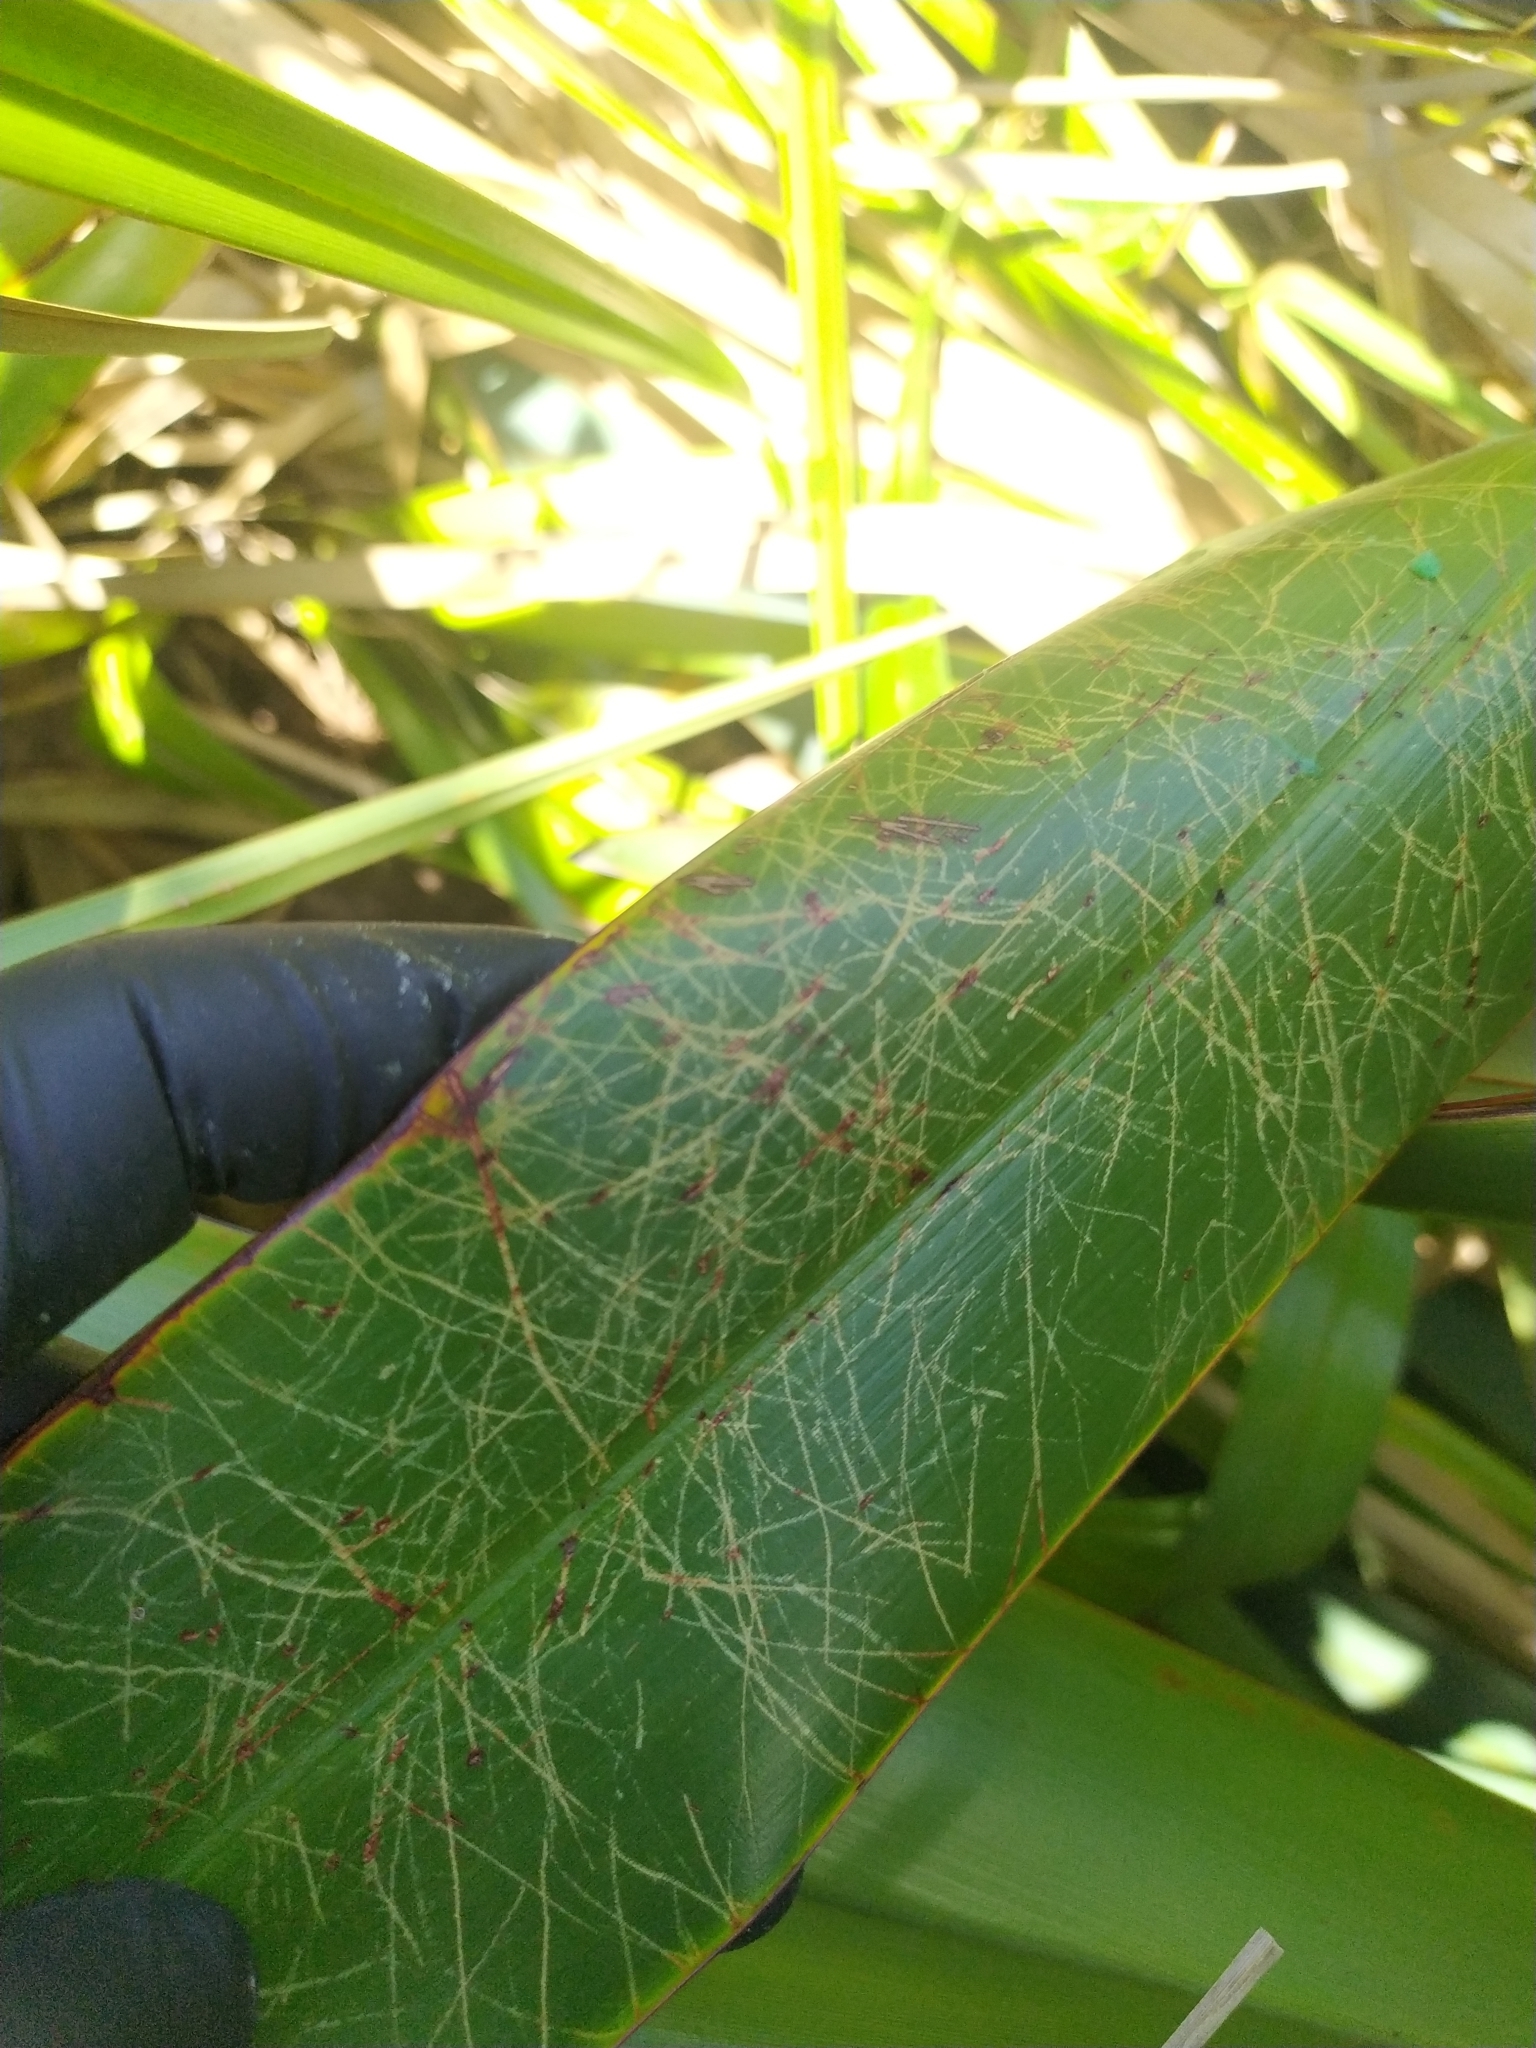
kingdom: Plantae
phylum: Tracheophyta
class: Liliopsida
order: Asparagales
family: Asphodelaceae
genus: Phormium
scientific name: Phormium tenax
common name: New zealand flax
